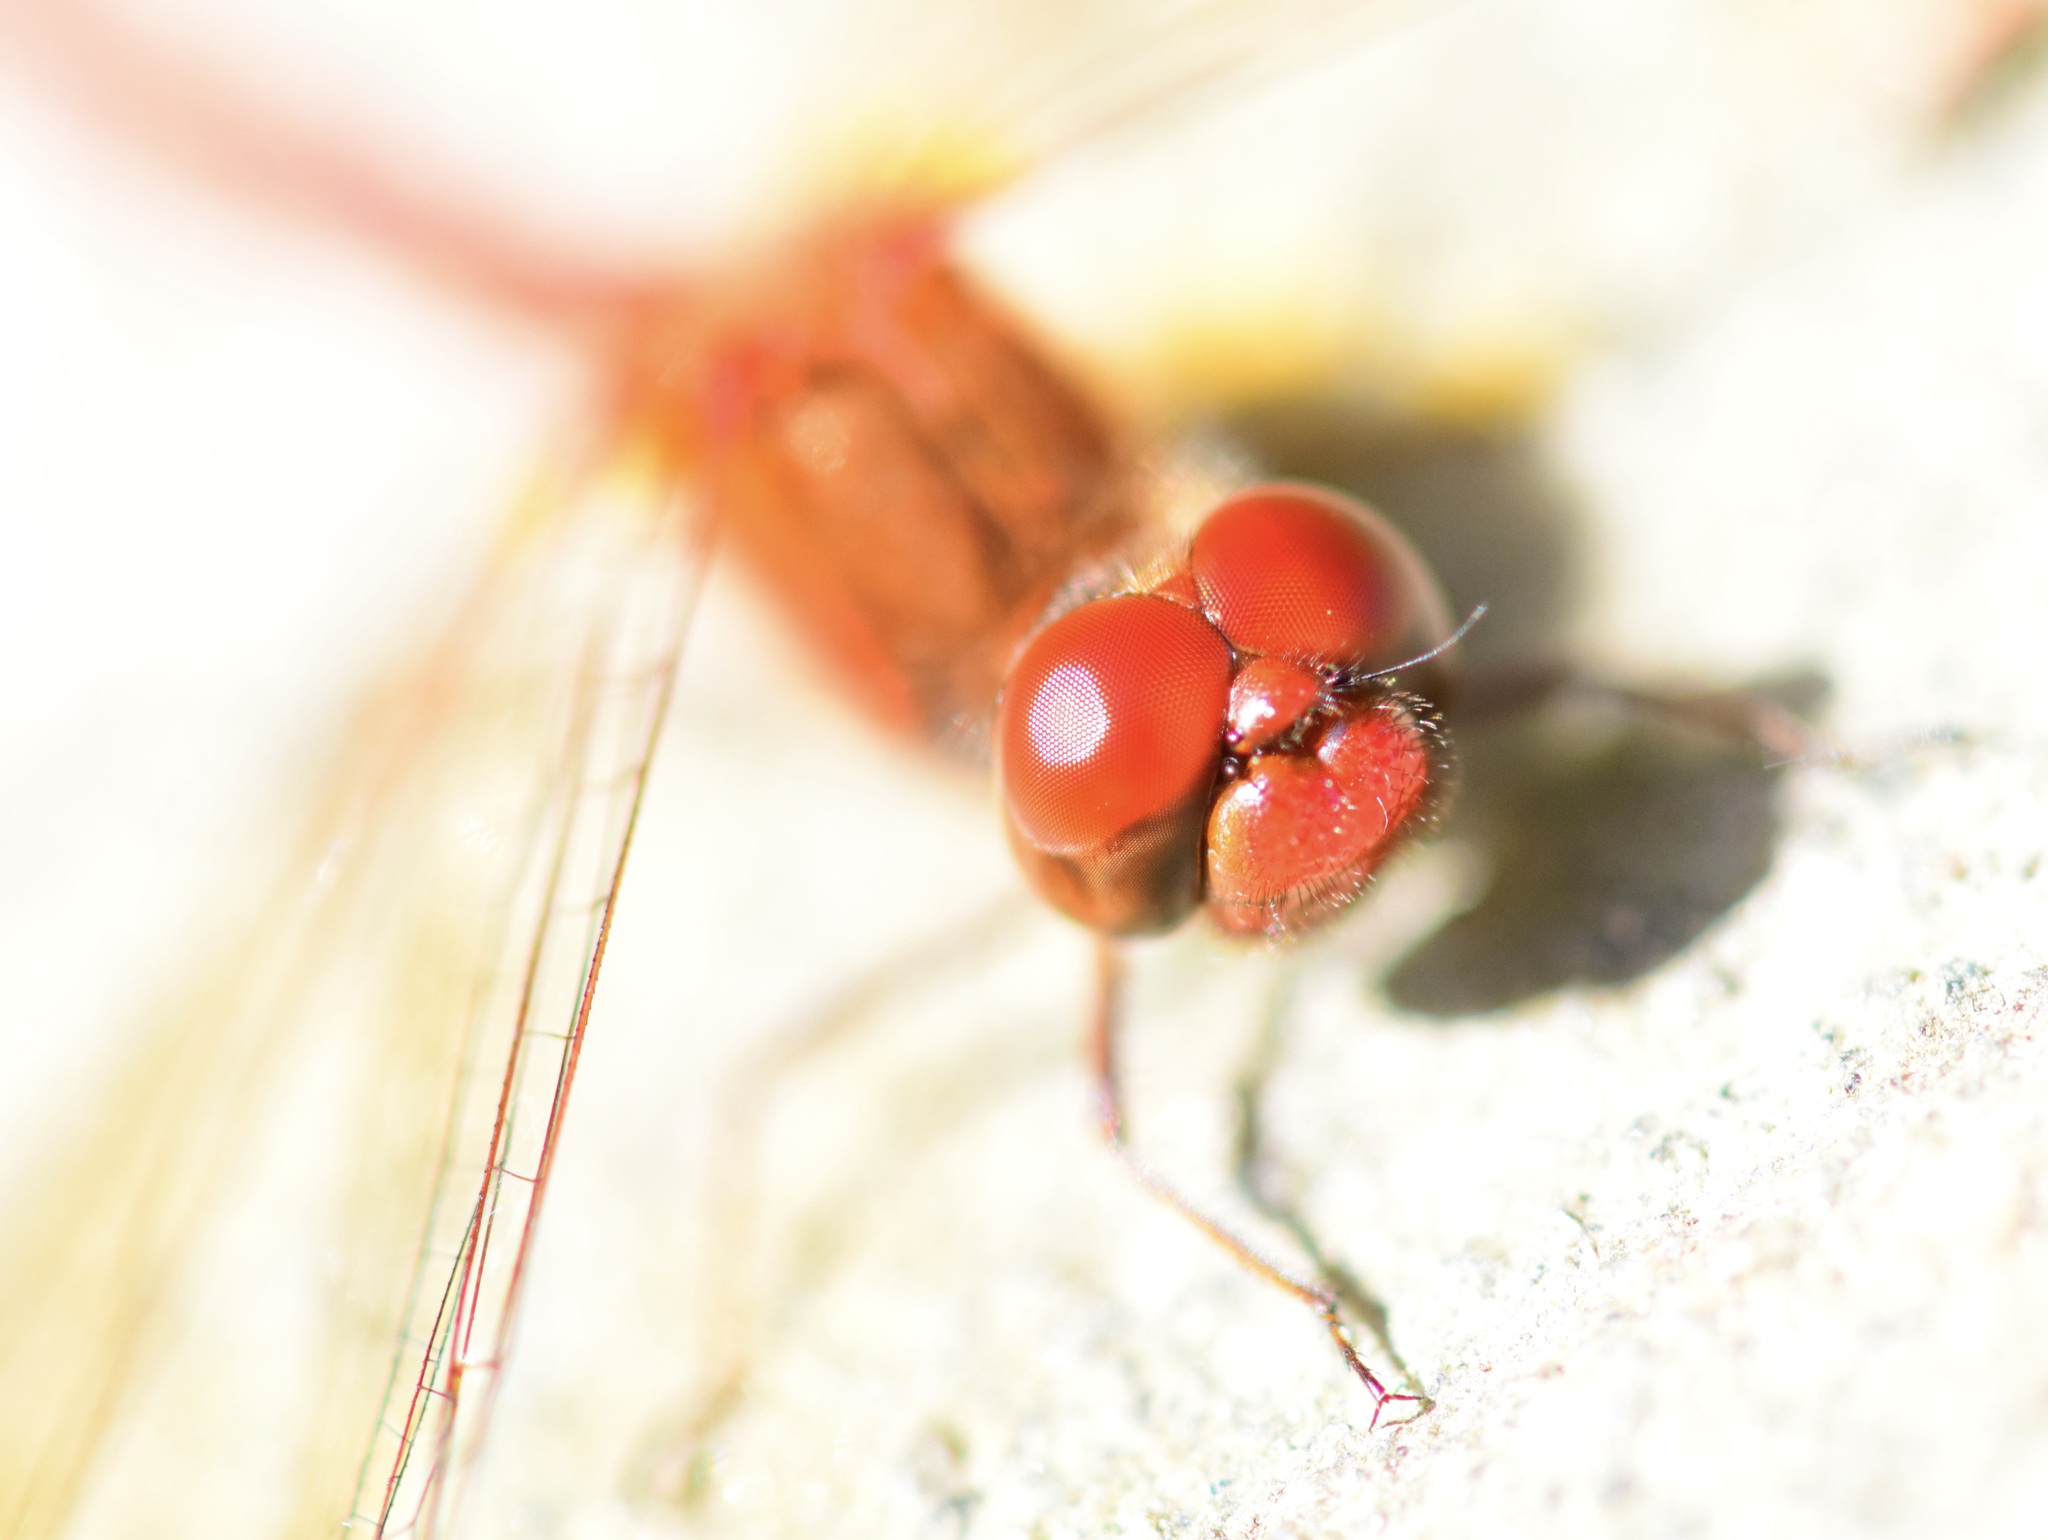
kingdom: Animalia
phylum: Arthropoda
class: Insecta
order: Odonata
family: Libellulidae
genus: Sympetrum
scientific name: Sympetrum vicinum
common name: Autumn meadowhawk
